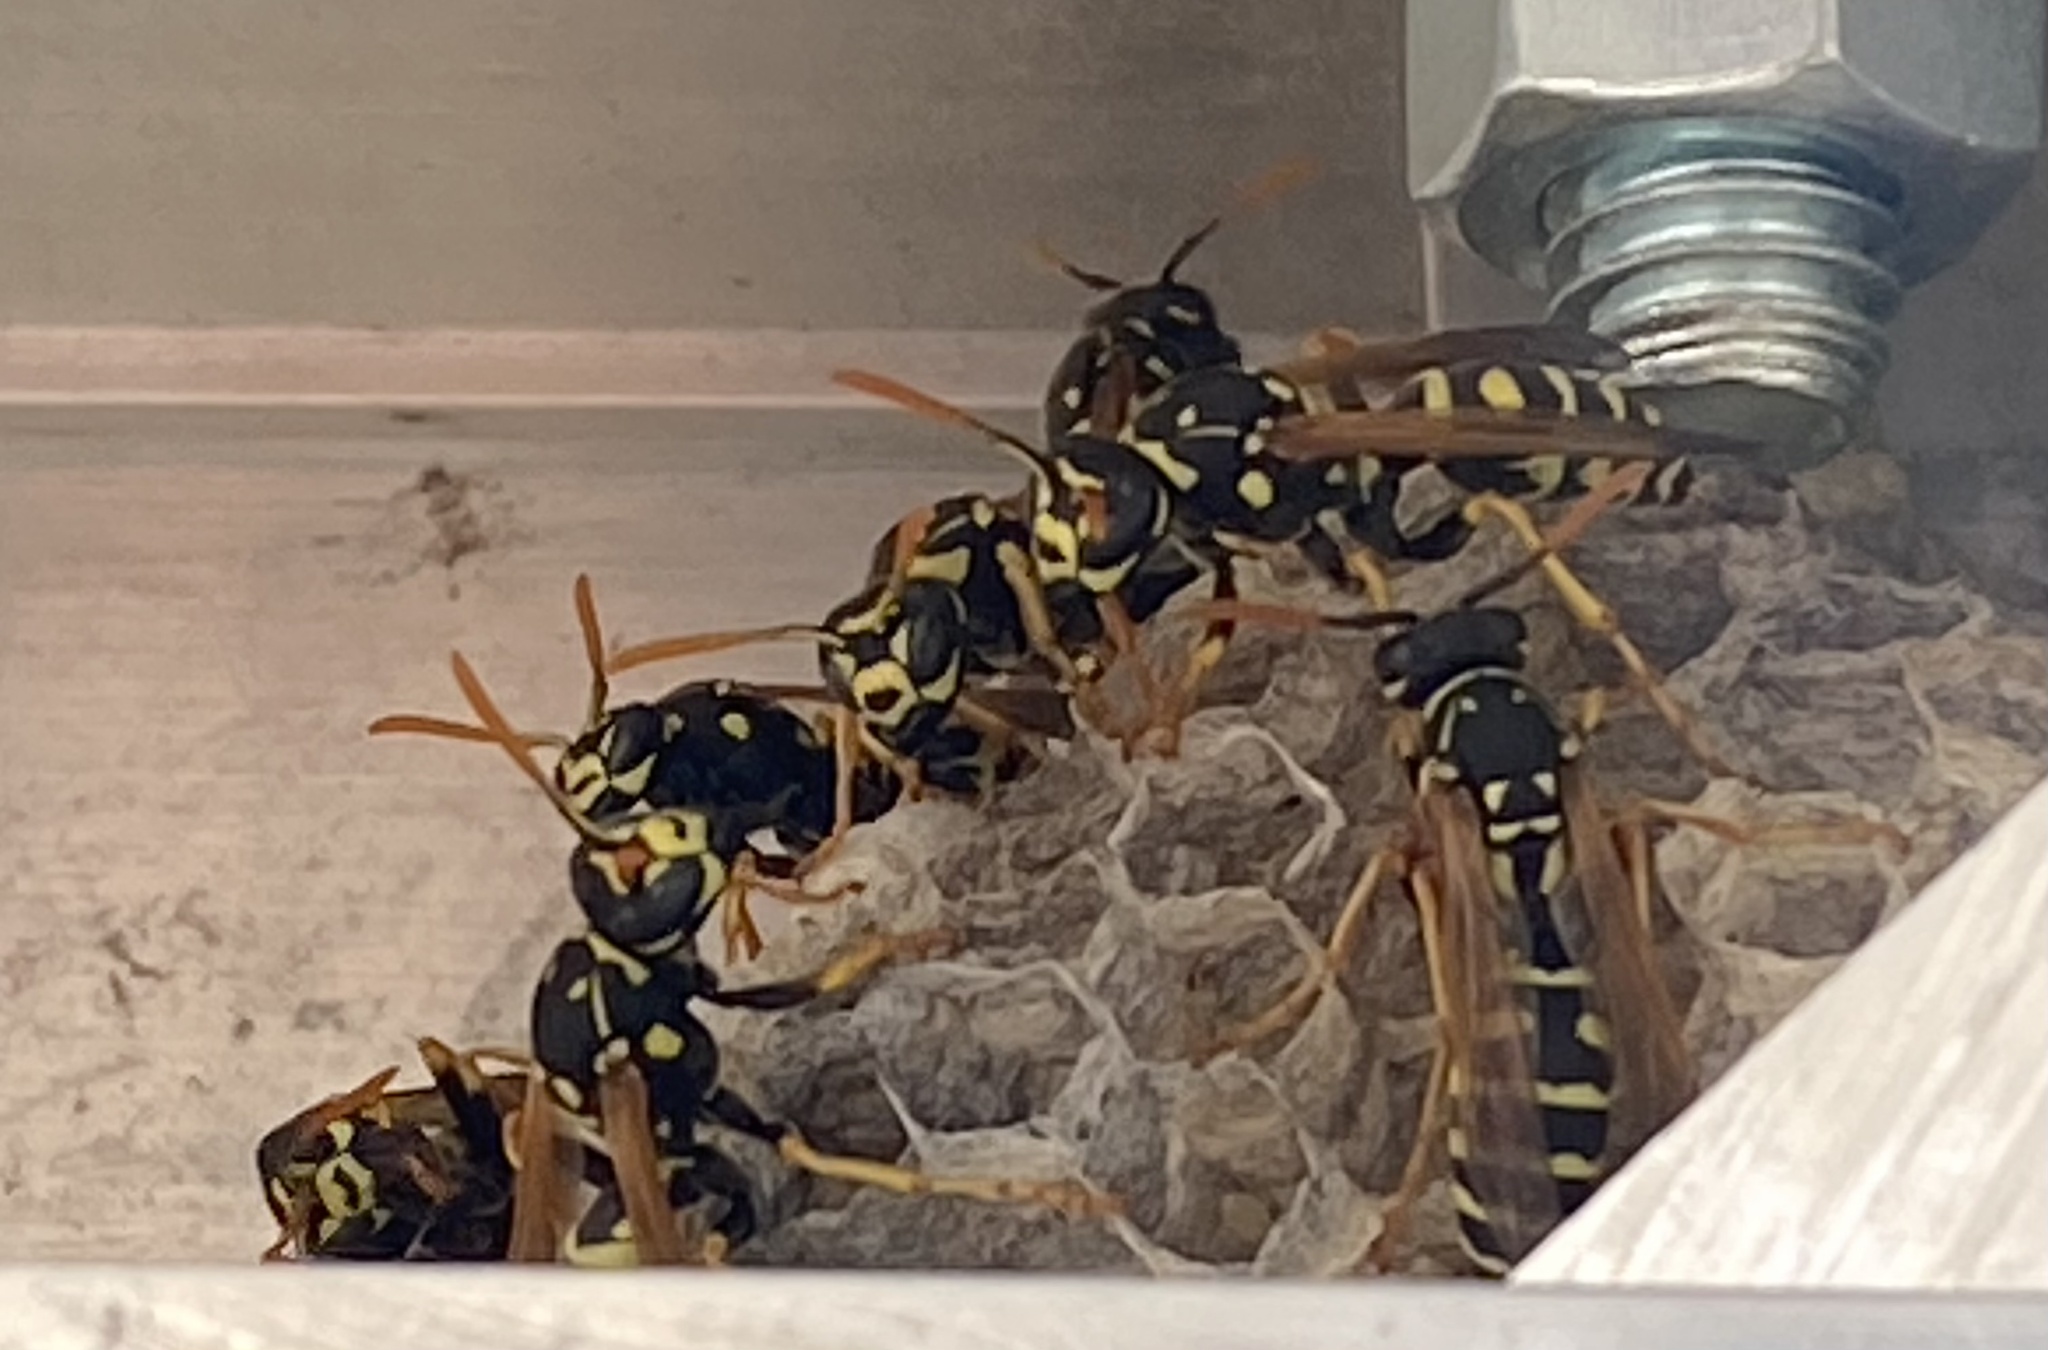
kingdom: Animalia
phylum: Arthropoda
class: Insecta
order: Hymenoptera
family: Eumenidae
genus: Polistes
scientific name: Polistes dominula
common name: Paper wasp
